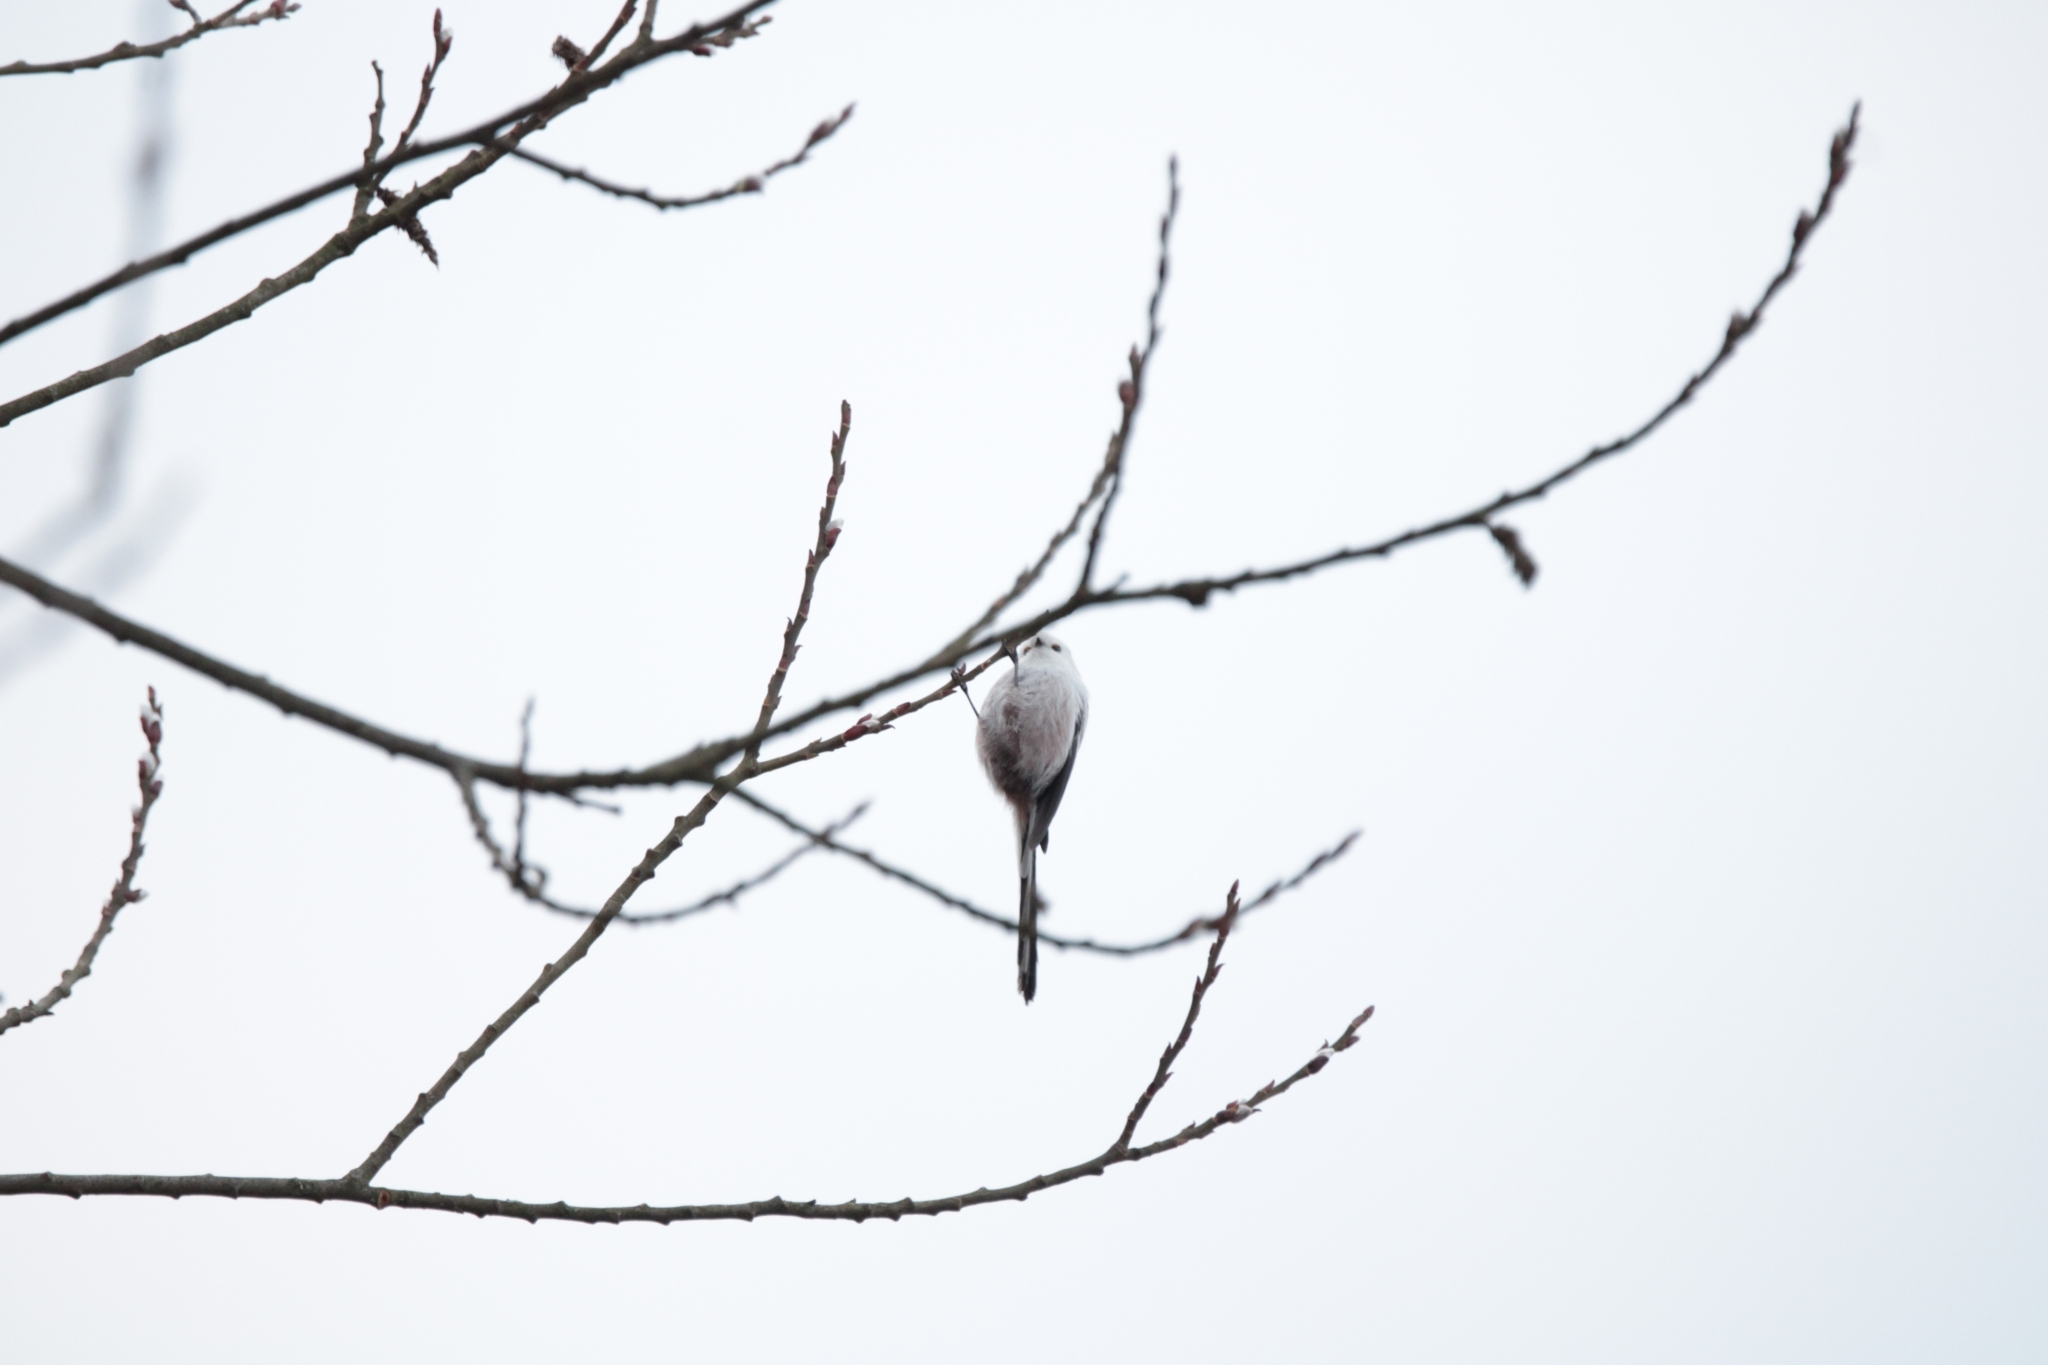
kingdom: Animalia
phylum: Chordata
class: Aves
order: Passeriformes
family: Aegithalidae
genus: Aegithalos
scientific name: Aegithalos caudatus
